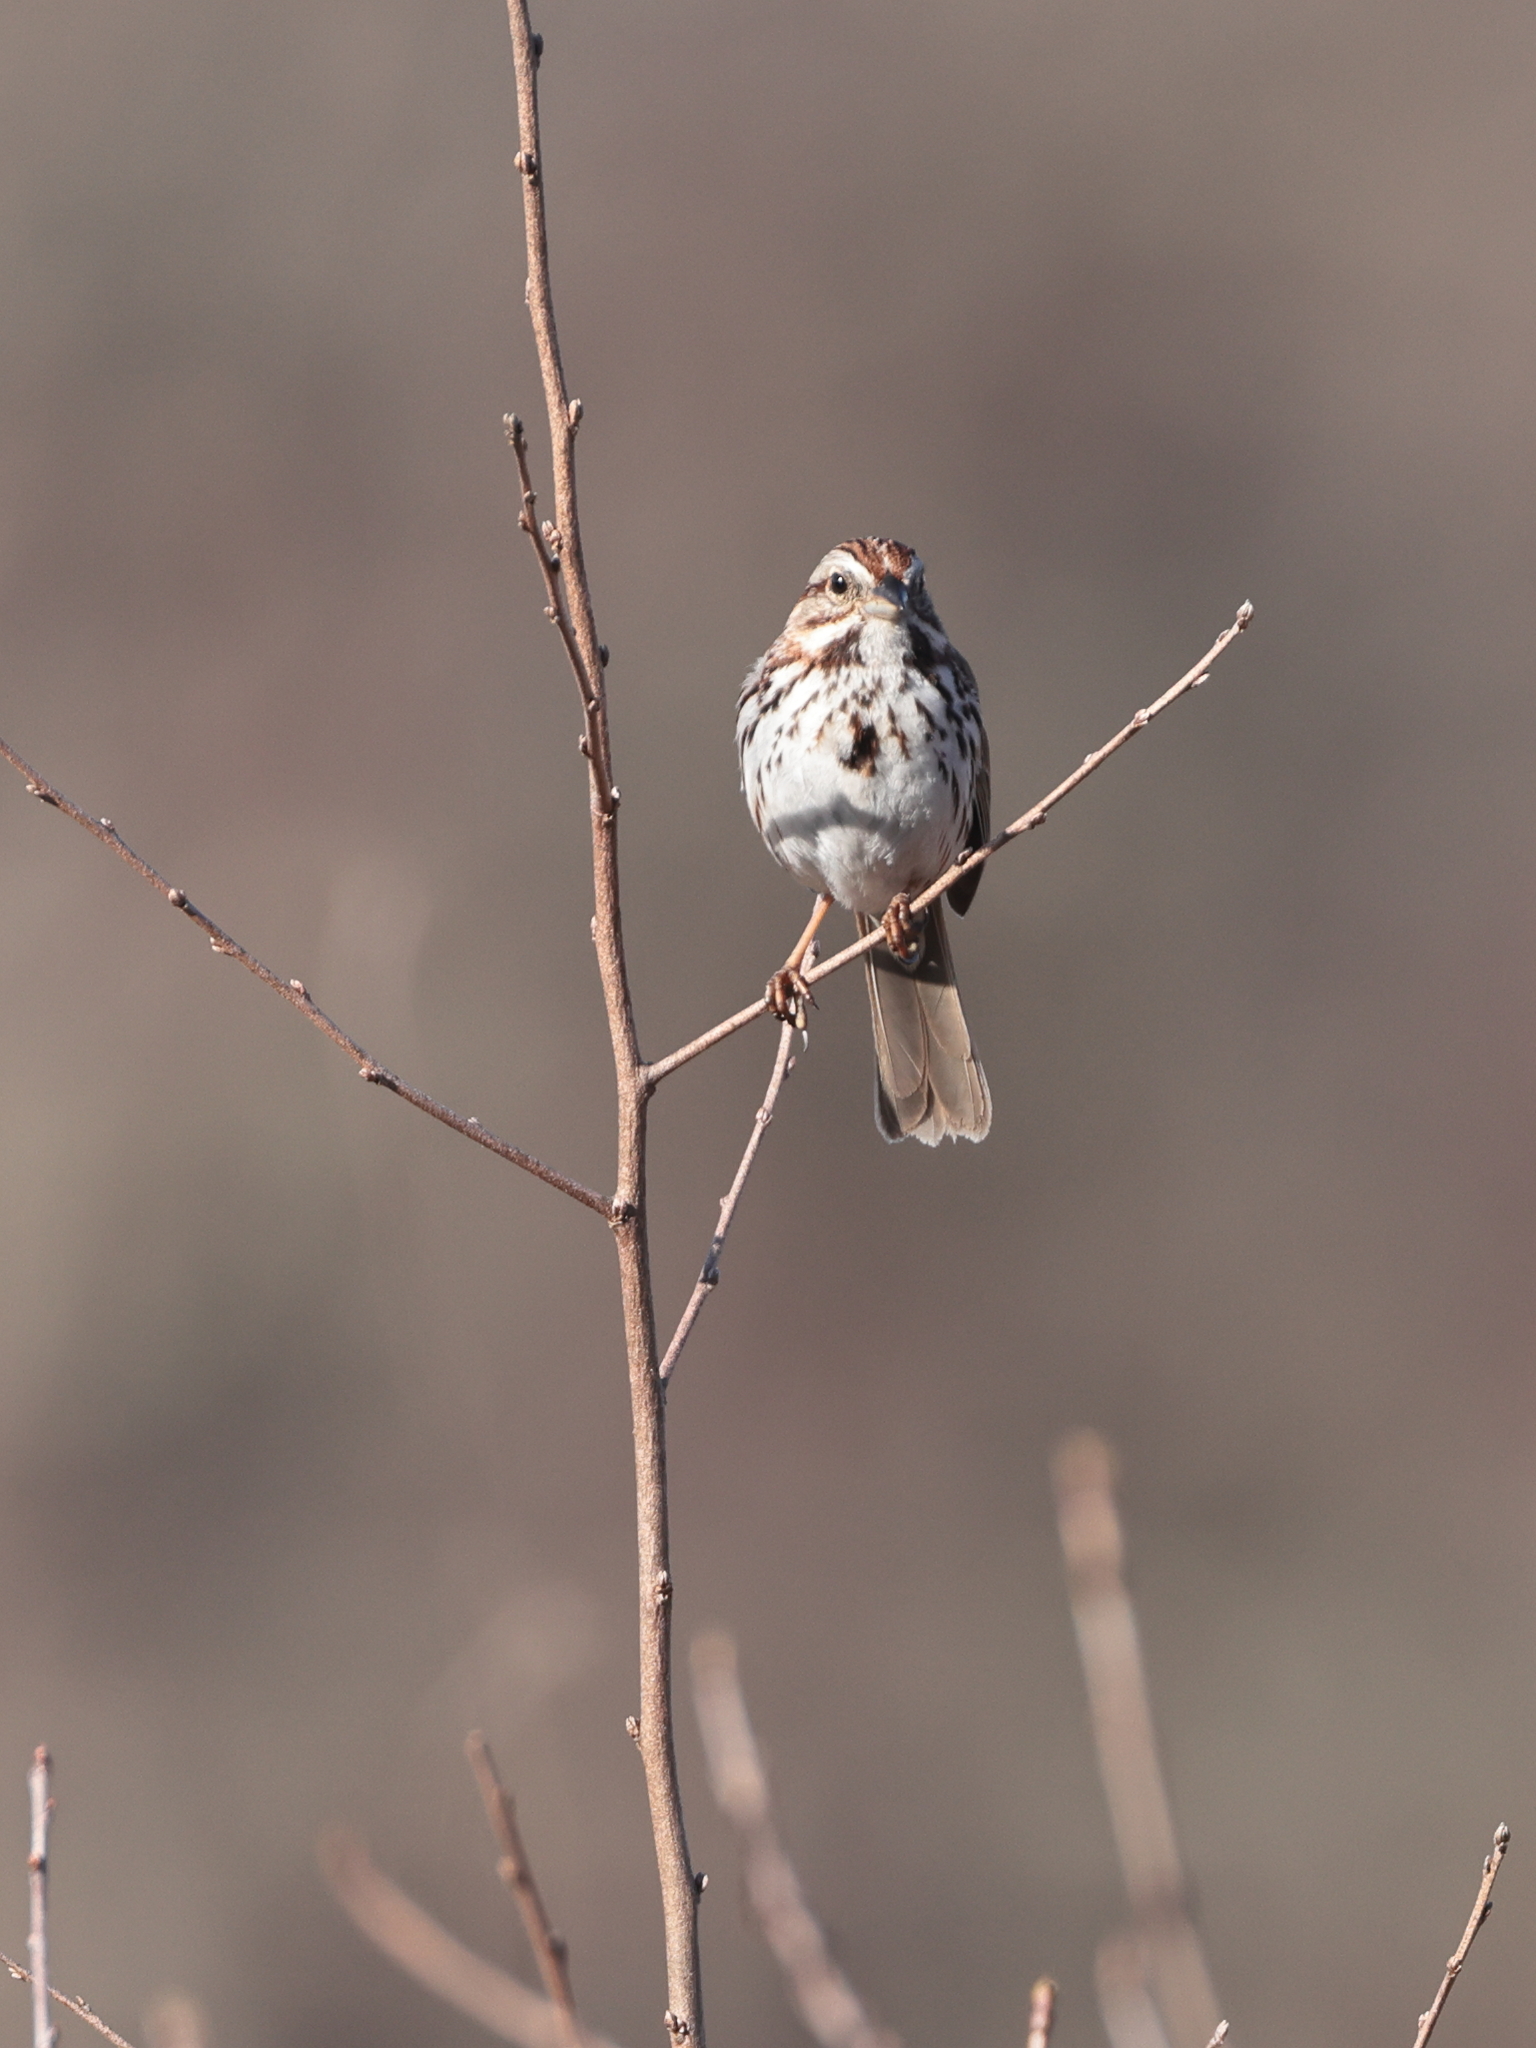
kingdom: Animalia
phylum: Chordata
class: Aves
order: Passeriformes
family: Passerellidae
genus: Melospiza
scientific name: Melospiza melodia
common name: Song sparrow
